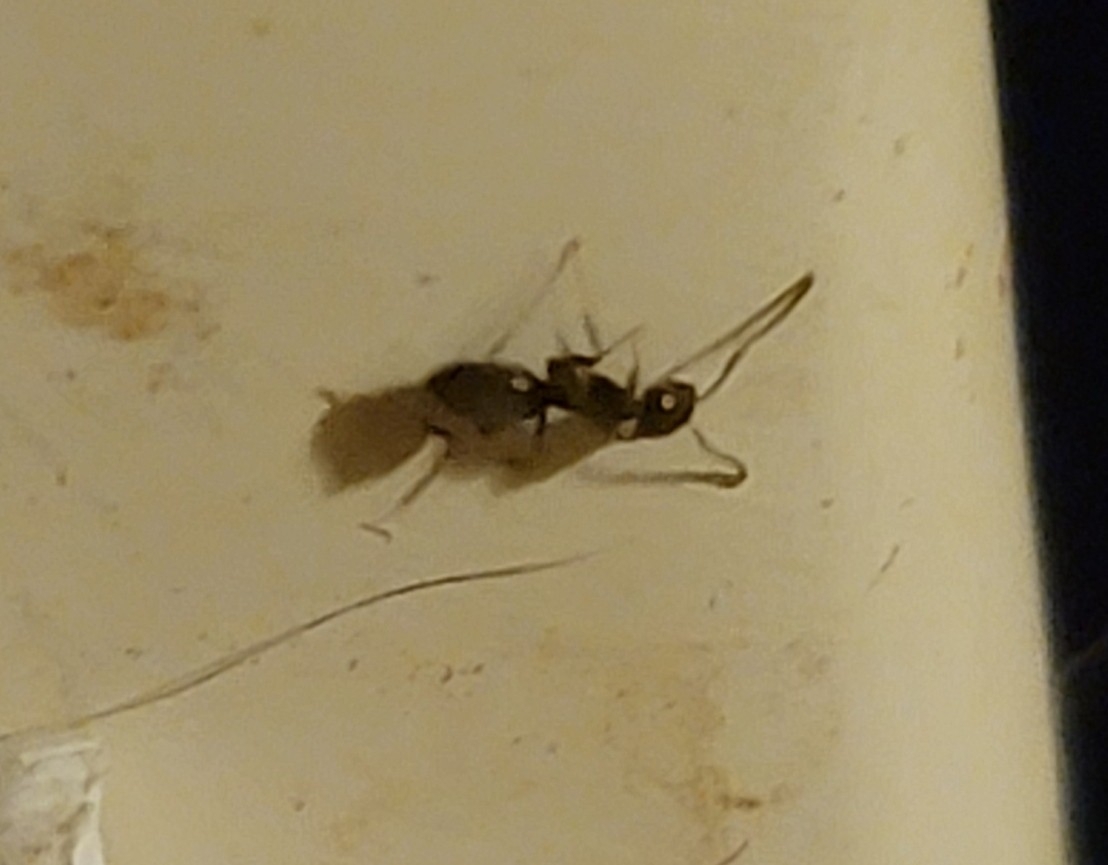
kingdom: Animalia
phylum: Arthropoda
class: Insecta
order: Hymenoptera
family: Formicidae
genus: Tapinoma
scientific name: Tapinoma sessile
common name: Odorous house ant
